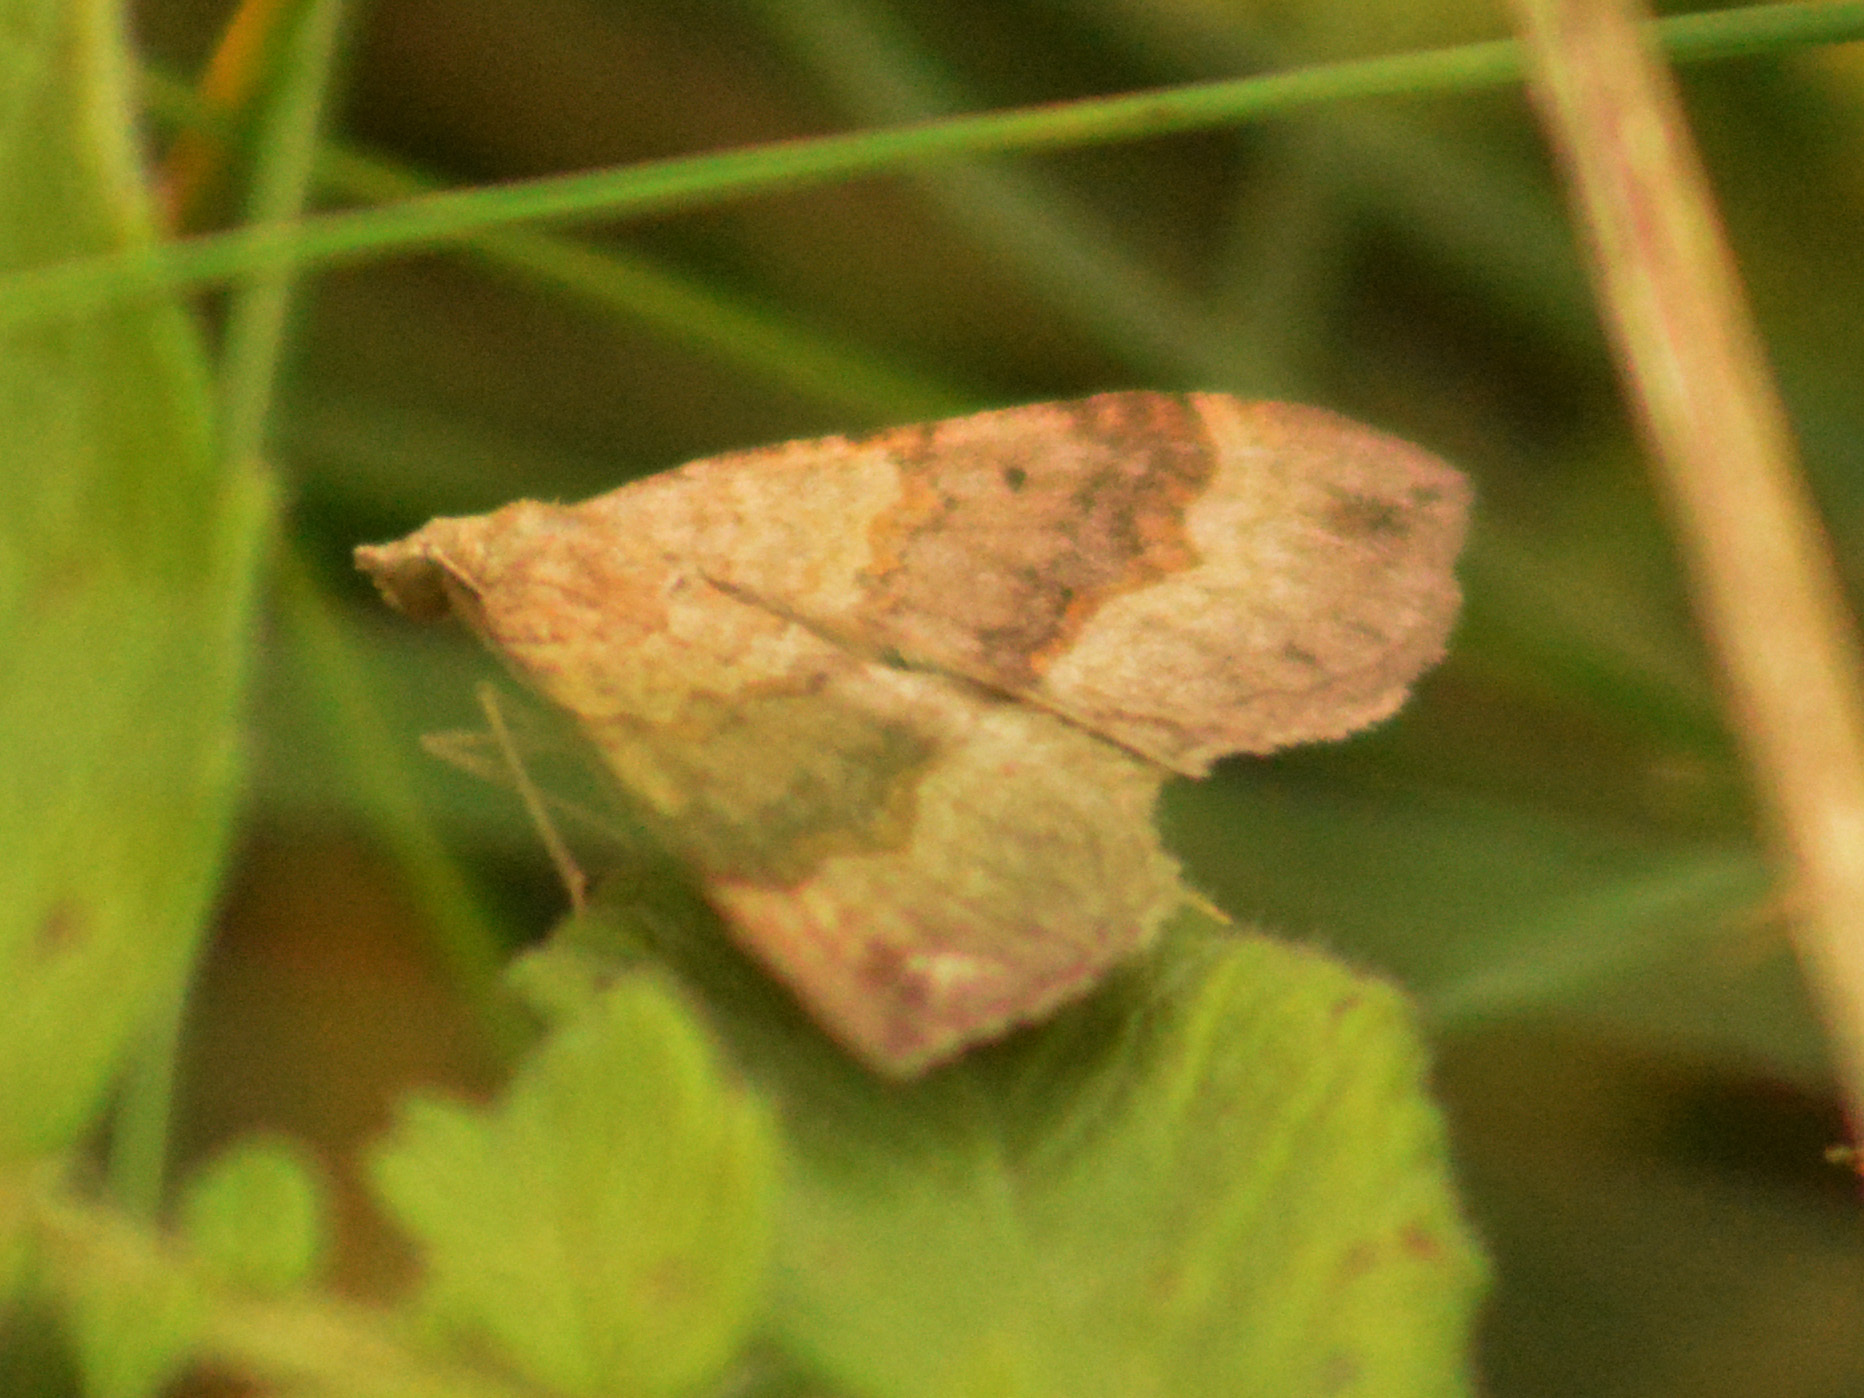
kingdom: Animalia
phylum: Arthropoda
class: Insecta
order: Lepidoptera
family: Geometridae
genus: Scotopteryx
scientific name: Scotopteryx chenopodiata
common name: Shaded broad-bar
